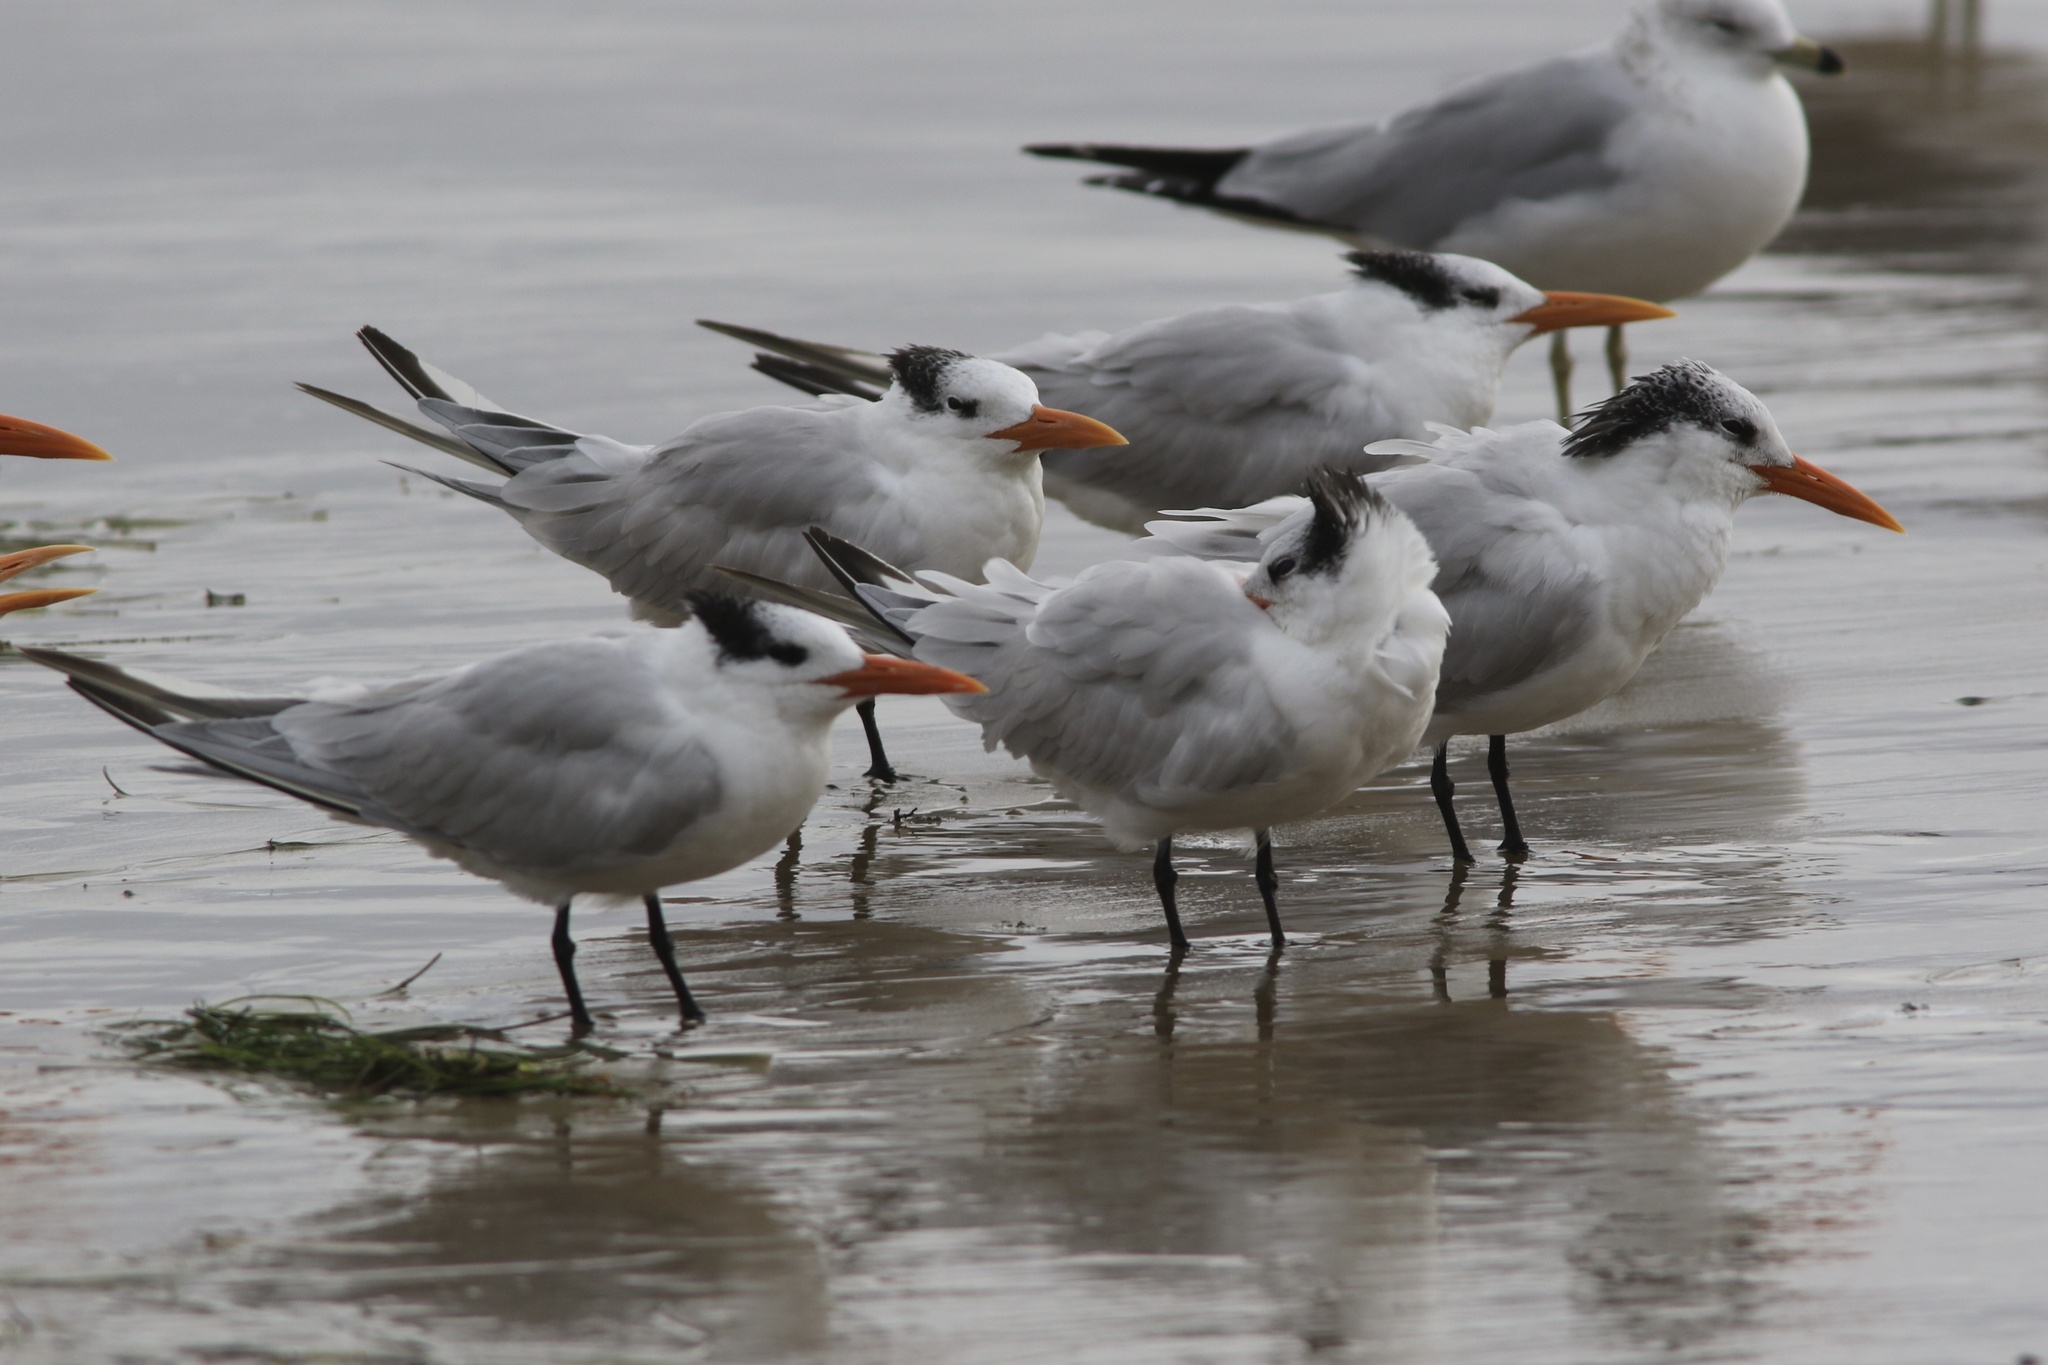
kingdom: Animalia
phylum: Chordata
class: Aves
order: Charadriiformes
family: Laridae
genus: Thalasseus
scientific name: Thalasseus maximus
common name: Royal tern
